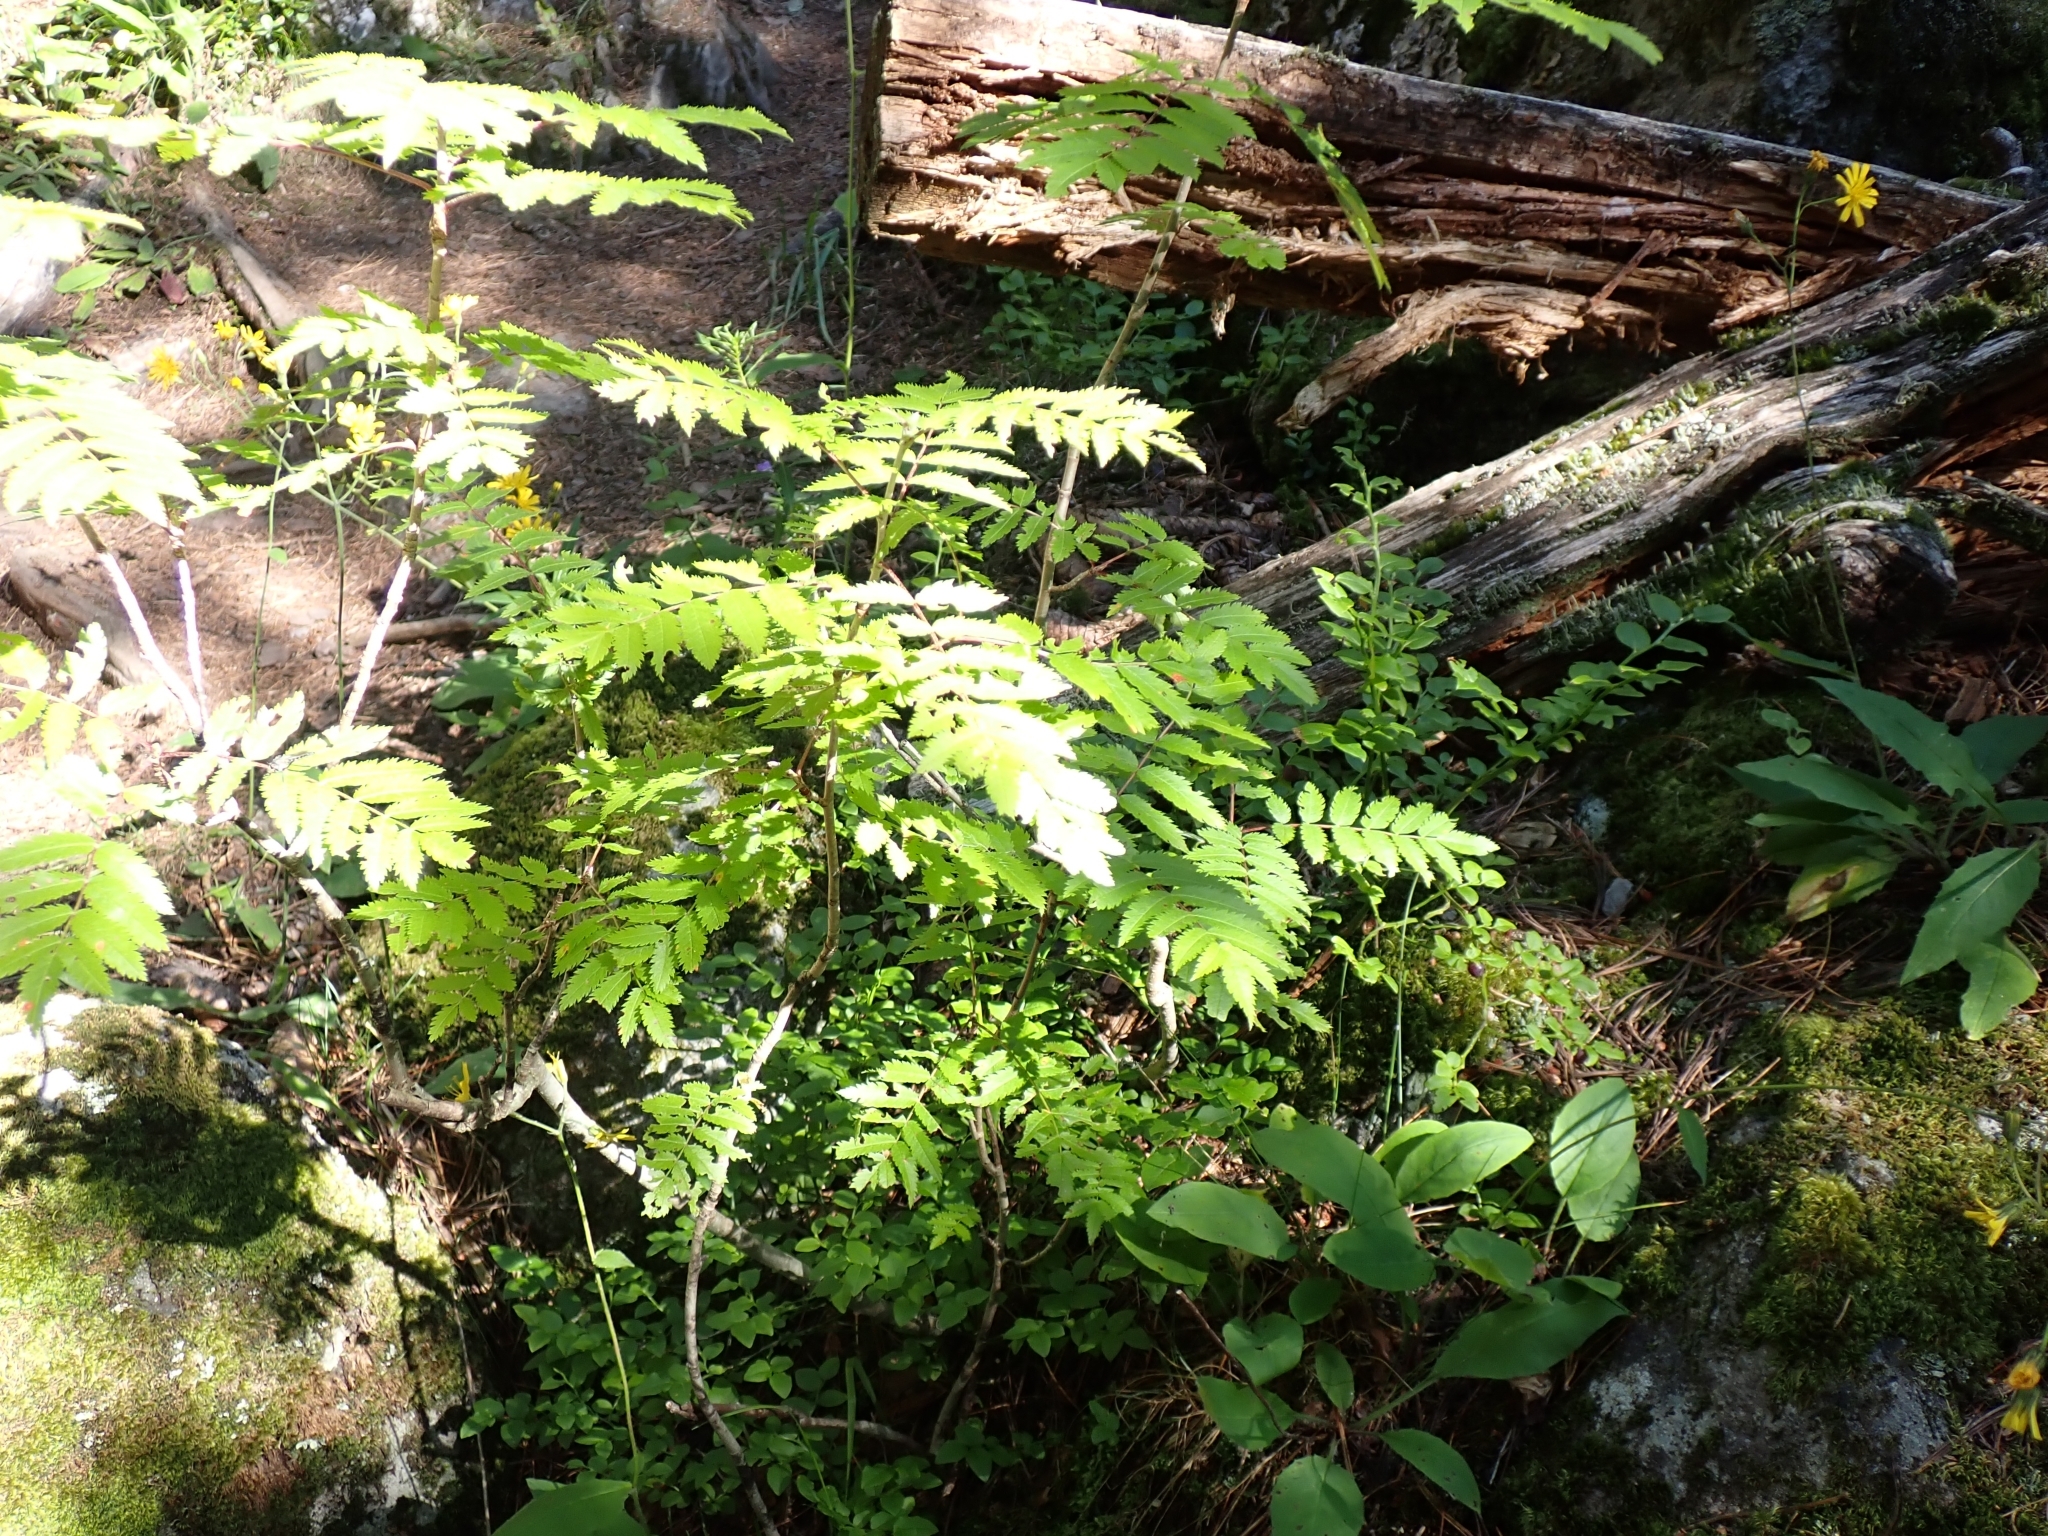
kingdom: Plantae
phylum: Tracheophyta
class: Magnoliopsida
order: Rosales
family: Rosaceae
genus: Sorbus
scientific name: Sorbus aucuparia
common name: Rowan
